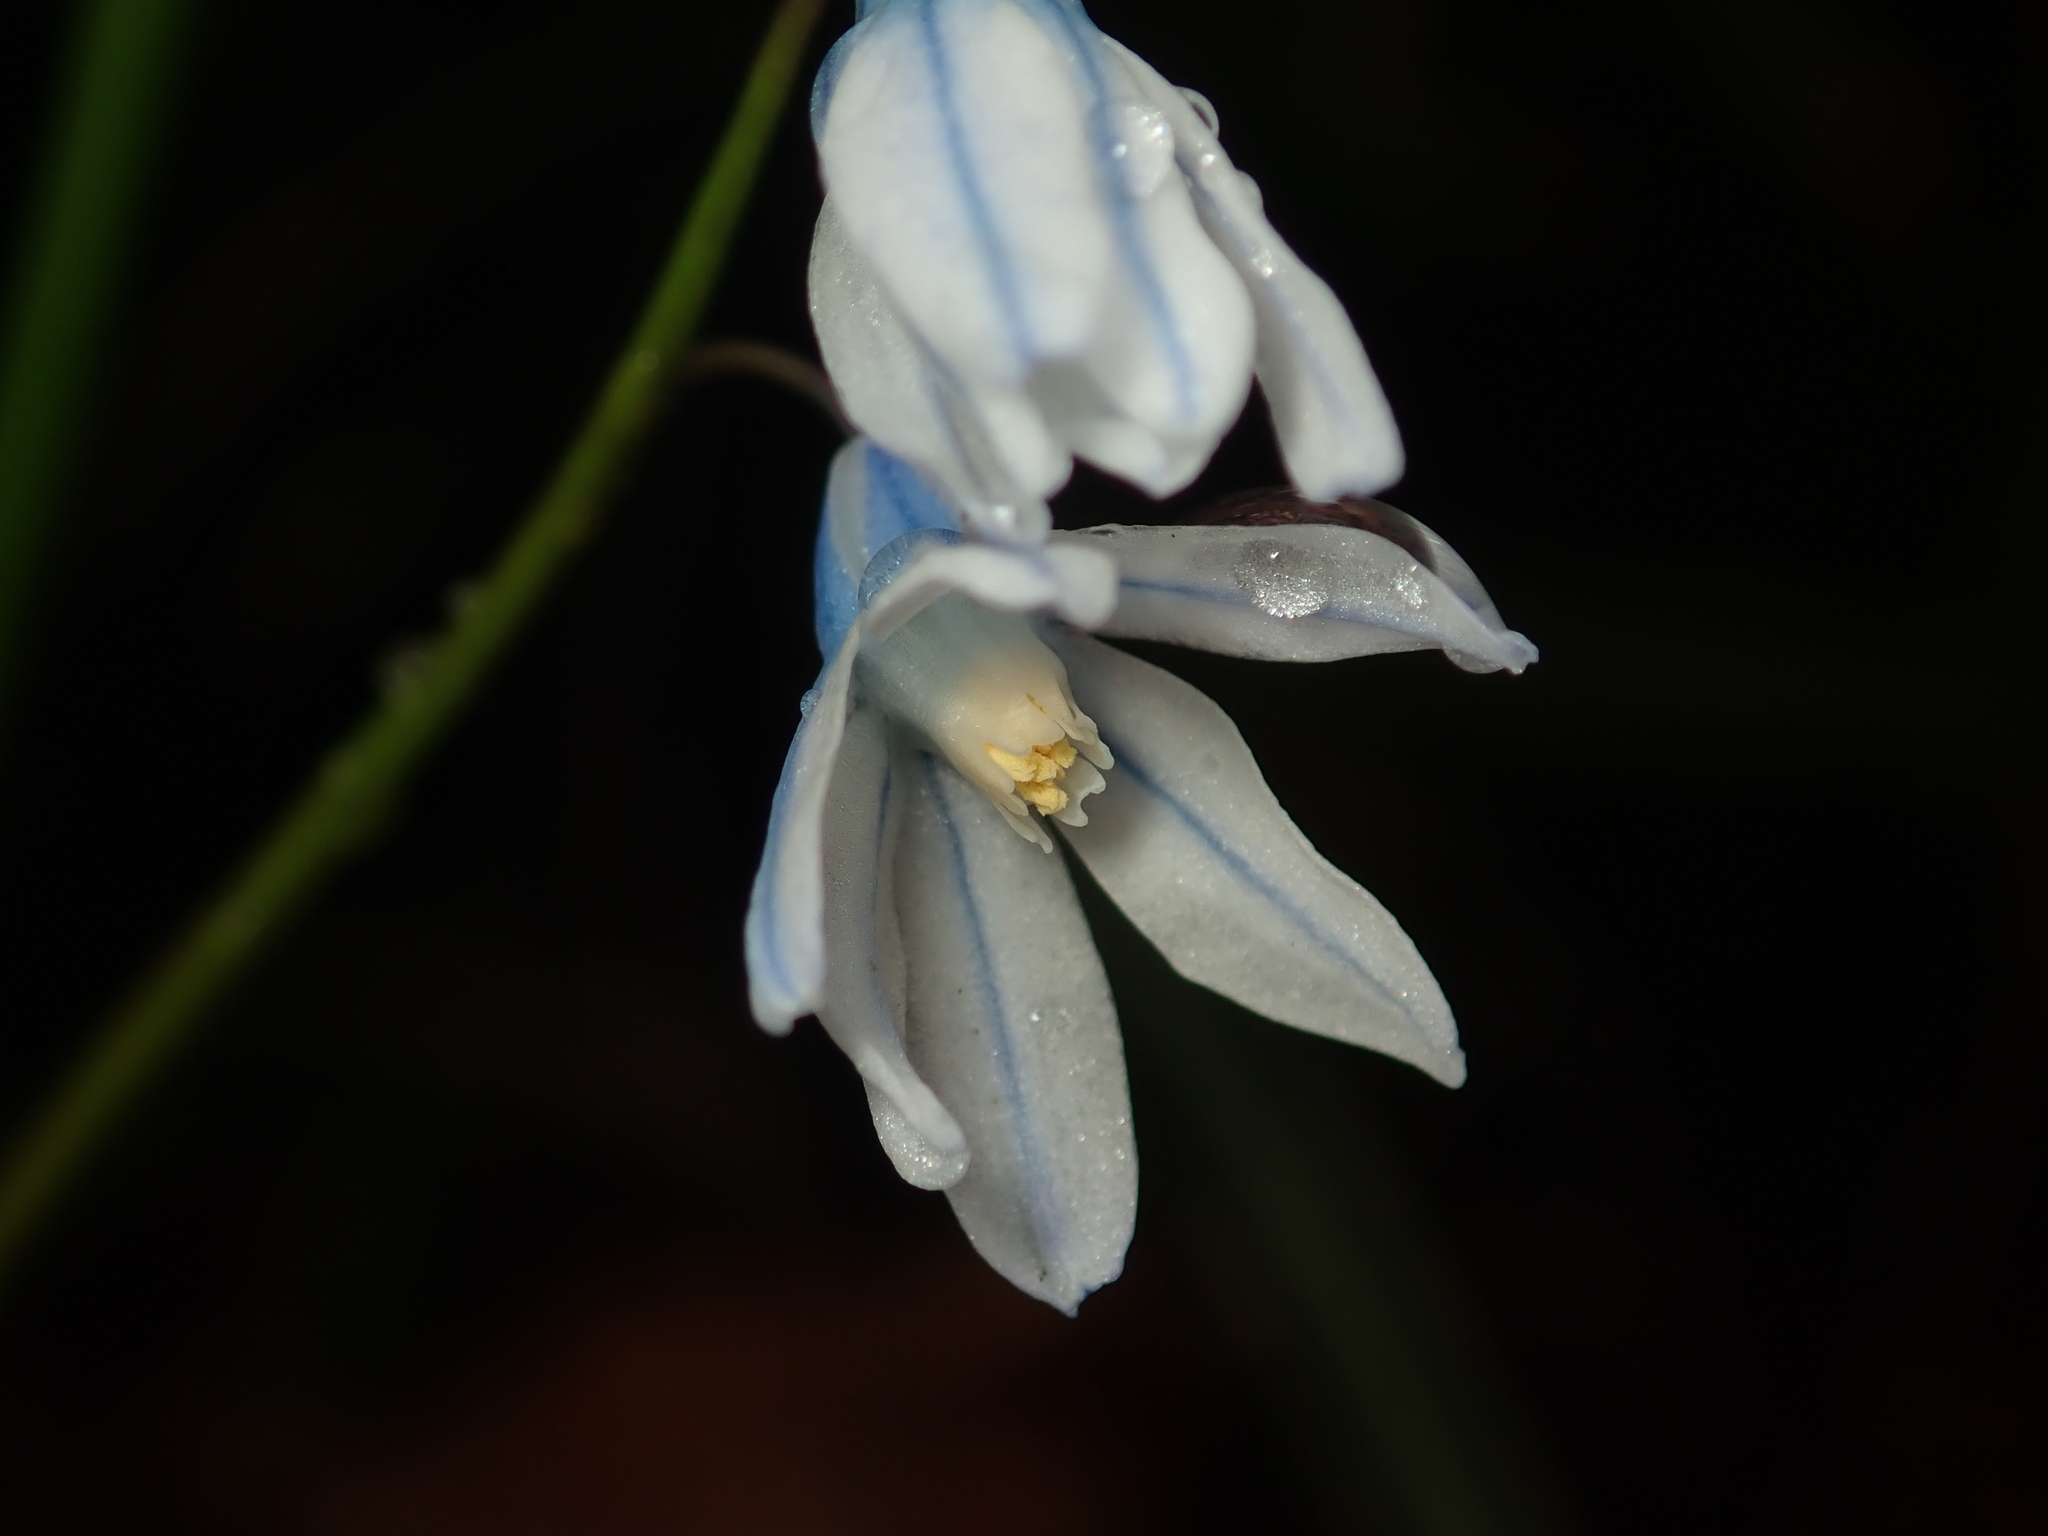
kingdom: Plantae
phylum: Tracheophyta
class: Liliopsida
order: Asparagales
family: Asparagaceae
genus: Puschkinia
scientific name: Puschkinia scilloides
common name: Striped squill
